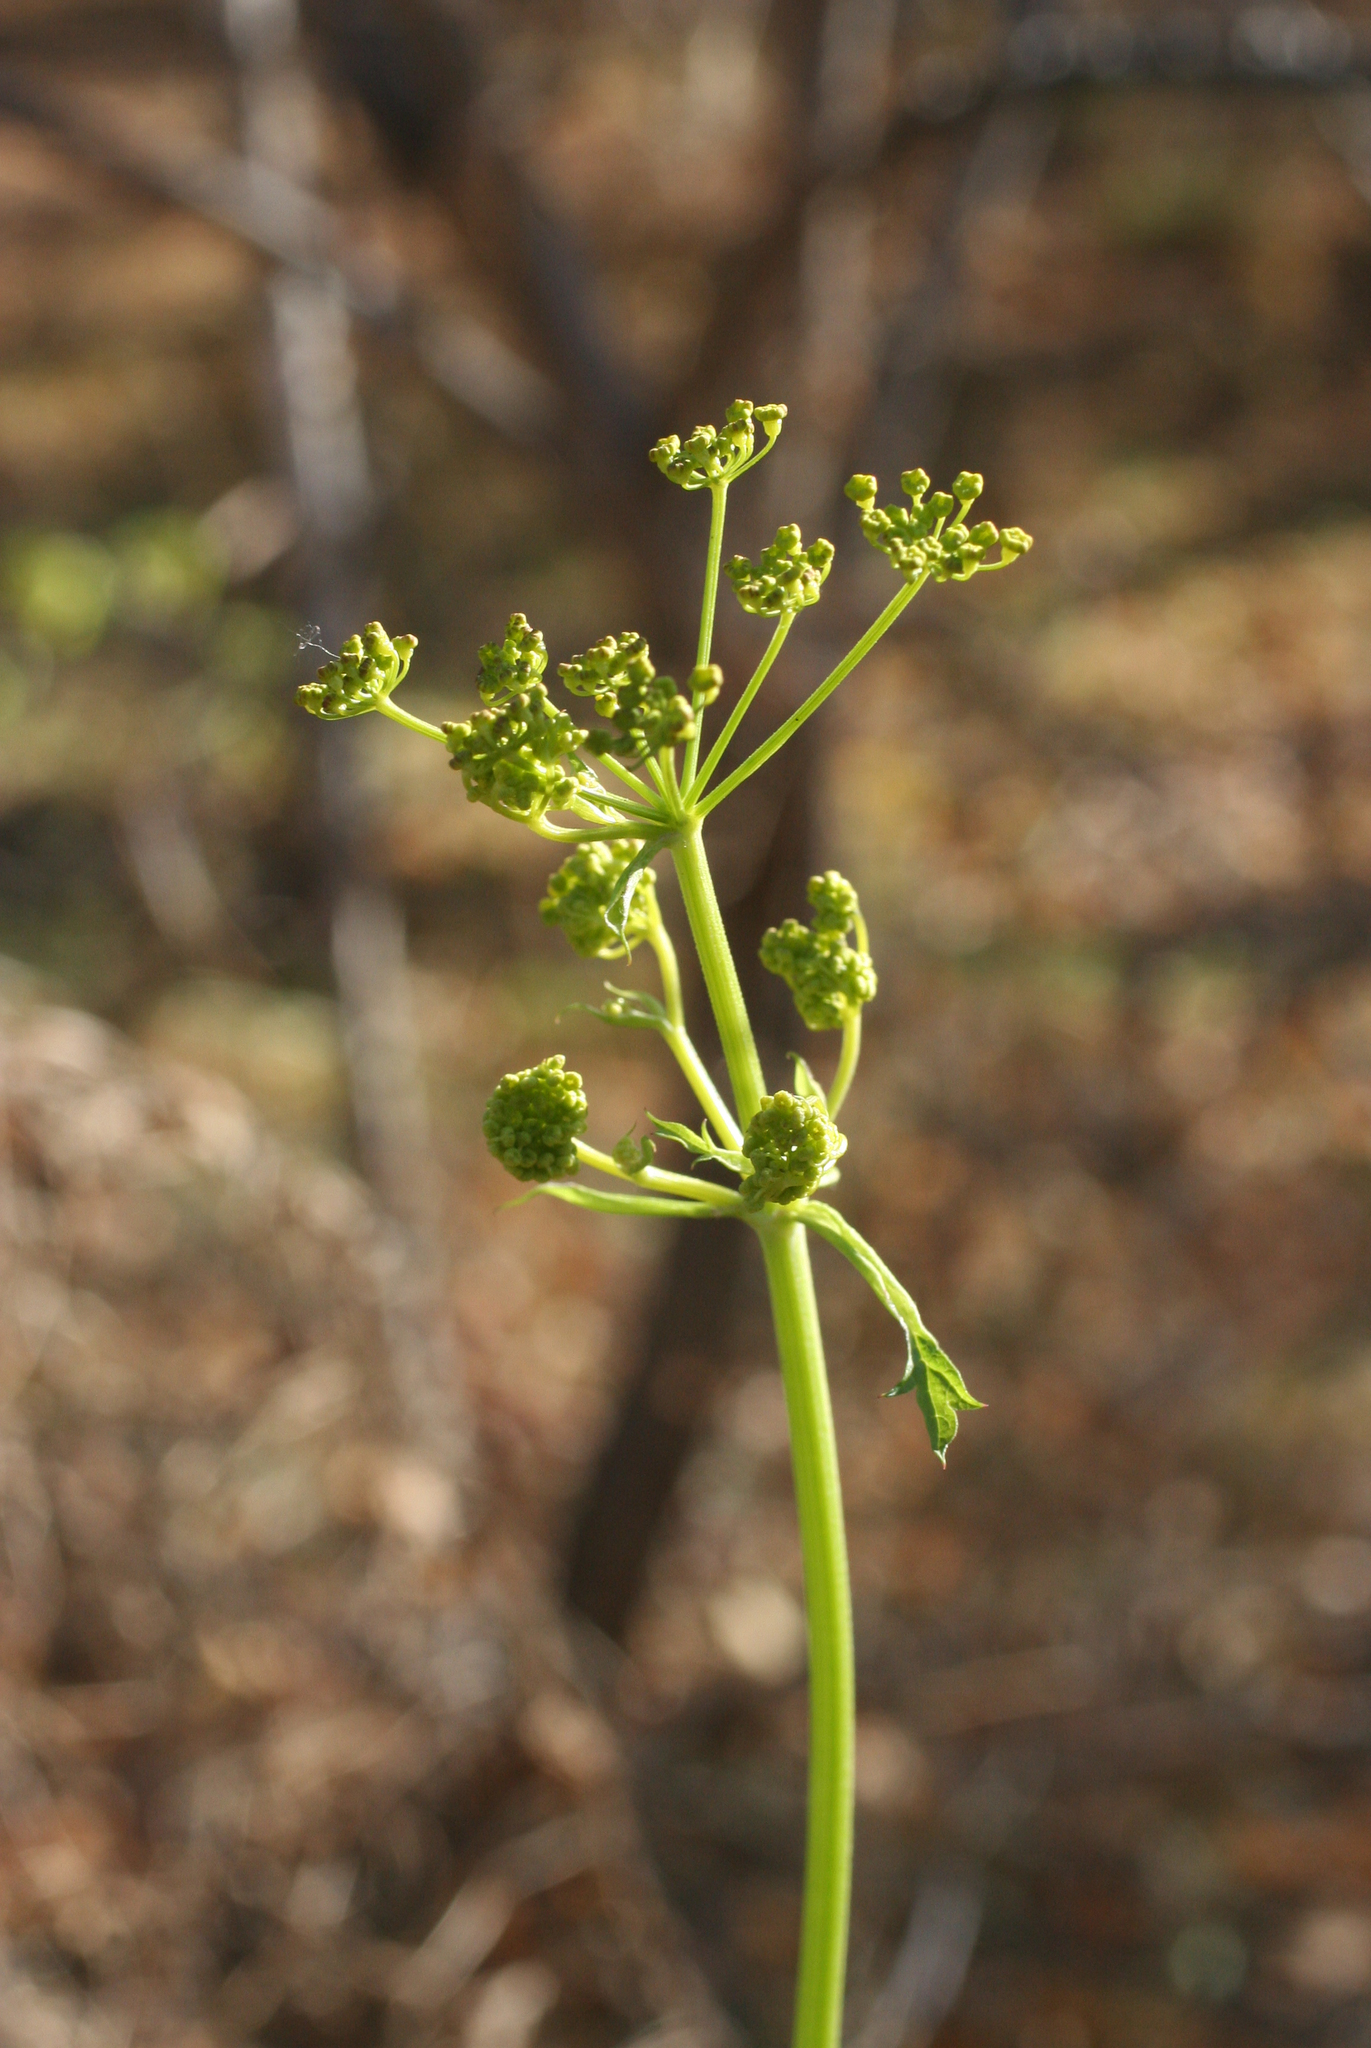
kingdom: Plantae
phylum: Tracheophyta
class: Magnoliopsida
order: Apiales
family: Apiaceae
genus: Pastinaca
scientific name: Pastinaca sativa
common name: Wild parsnip
